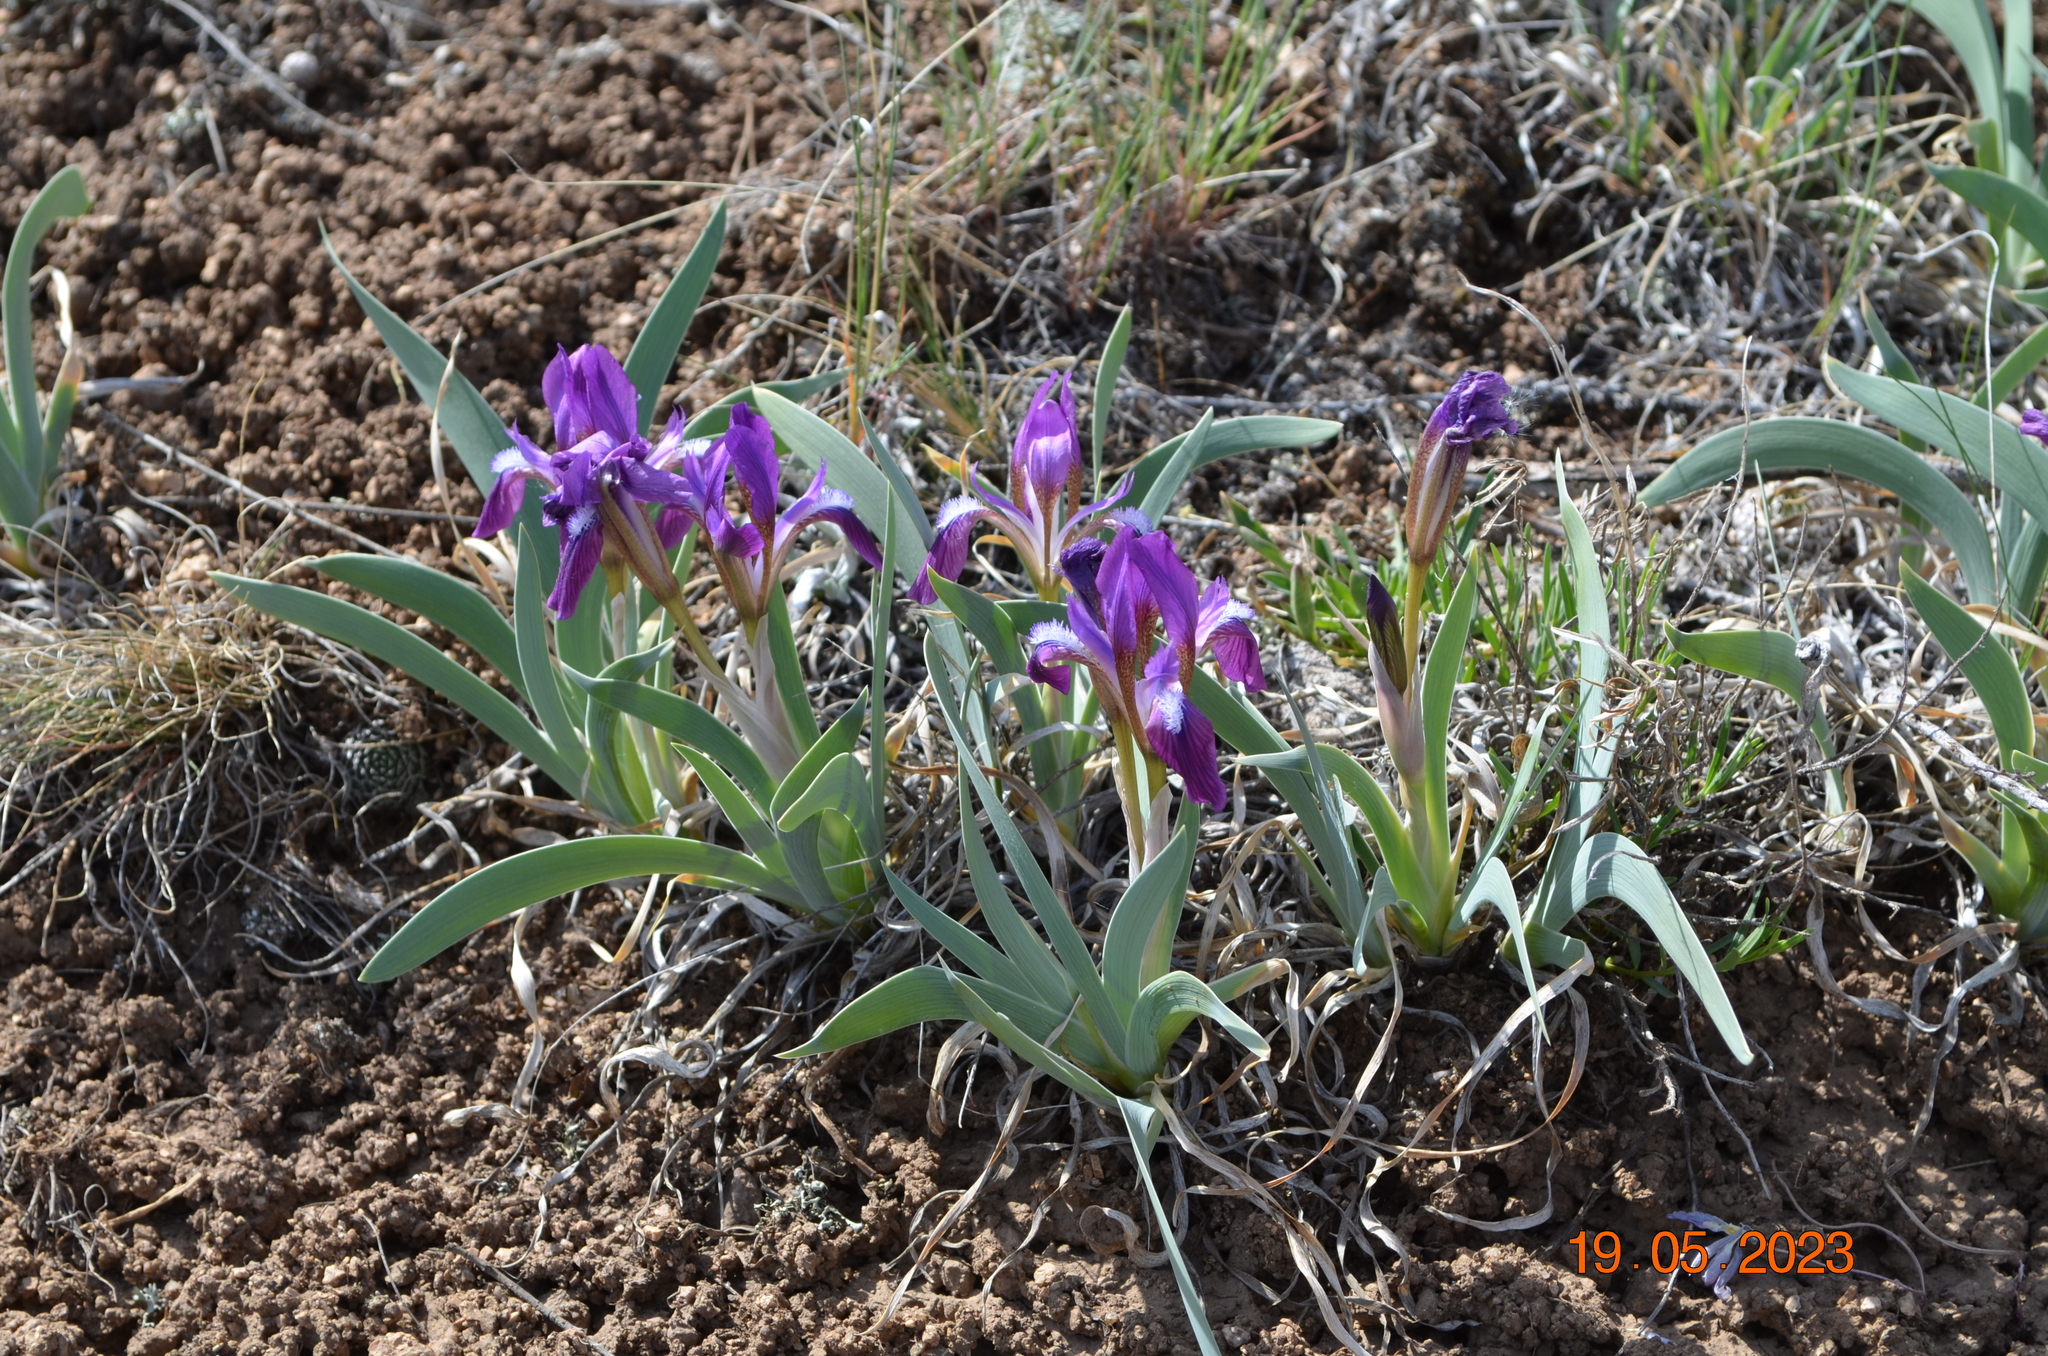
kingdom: Plantae
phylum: Tracheophyta
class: Liliopsida
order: Asparagales
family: Iridaceae
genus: Iris
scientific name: Iris glaucescens
